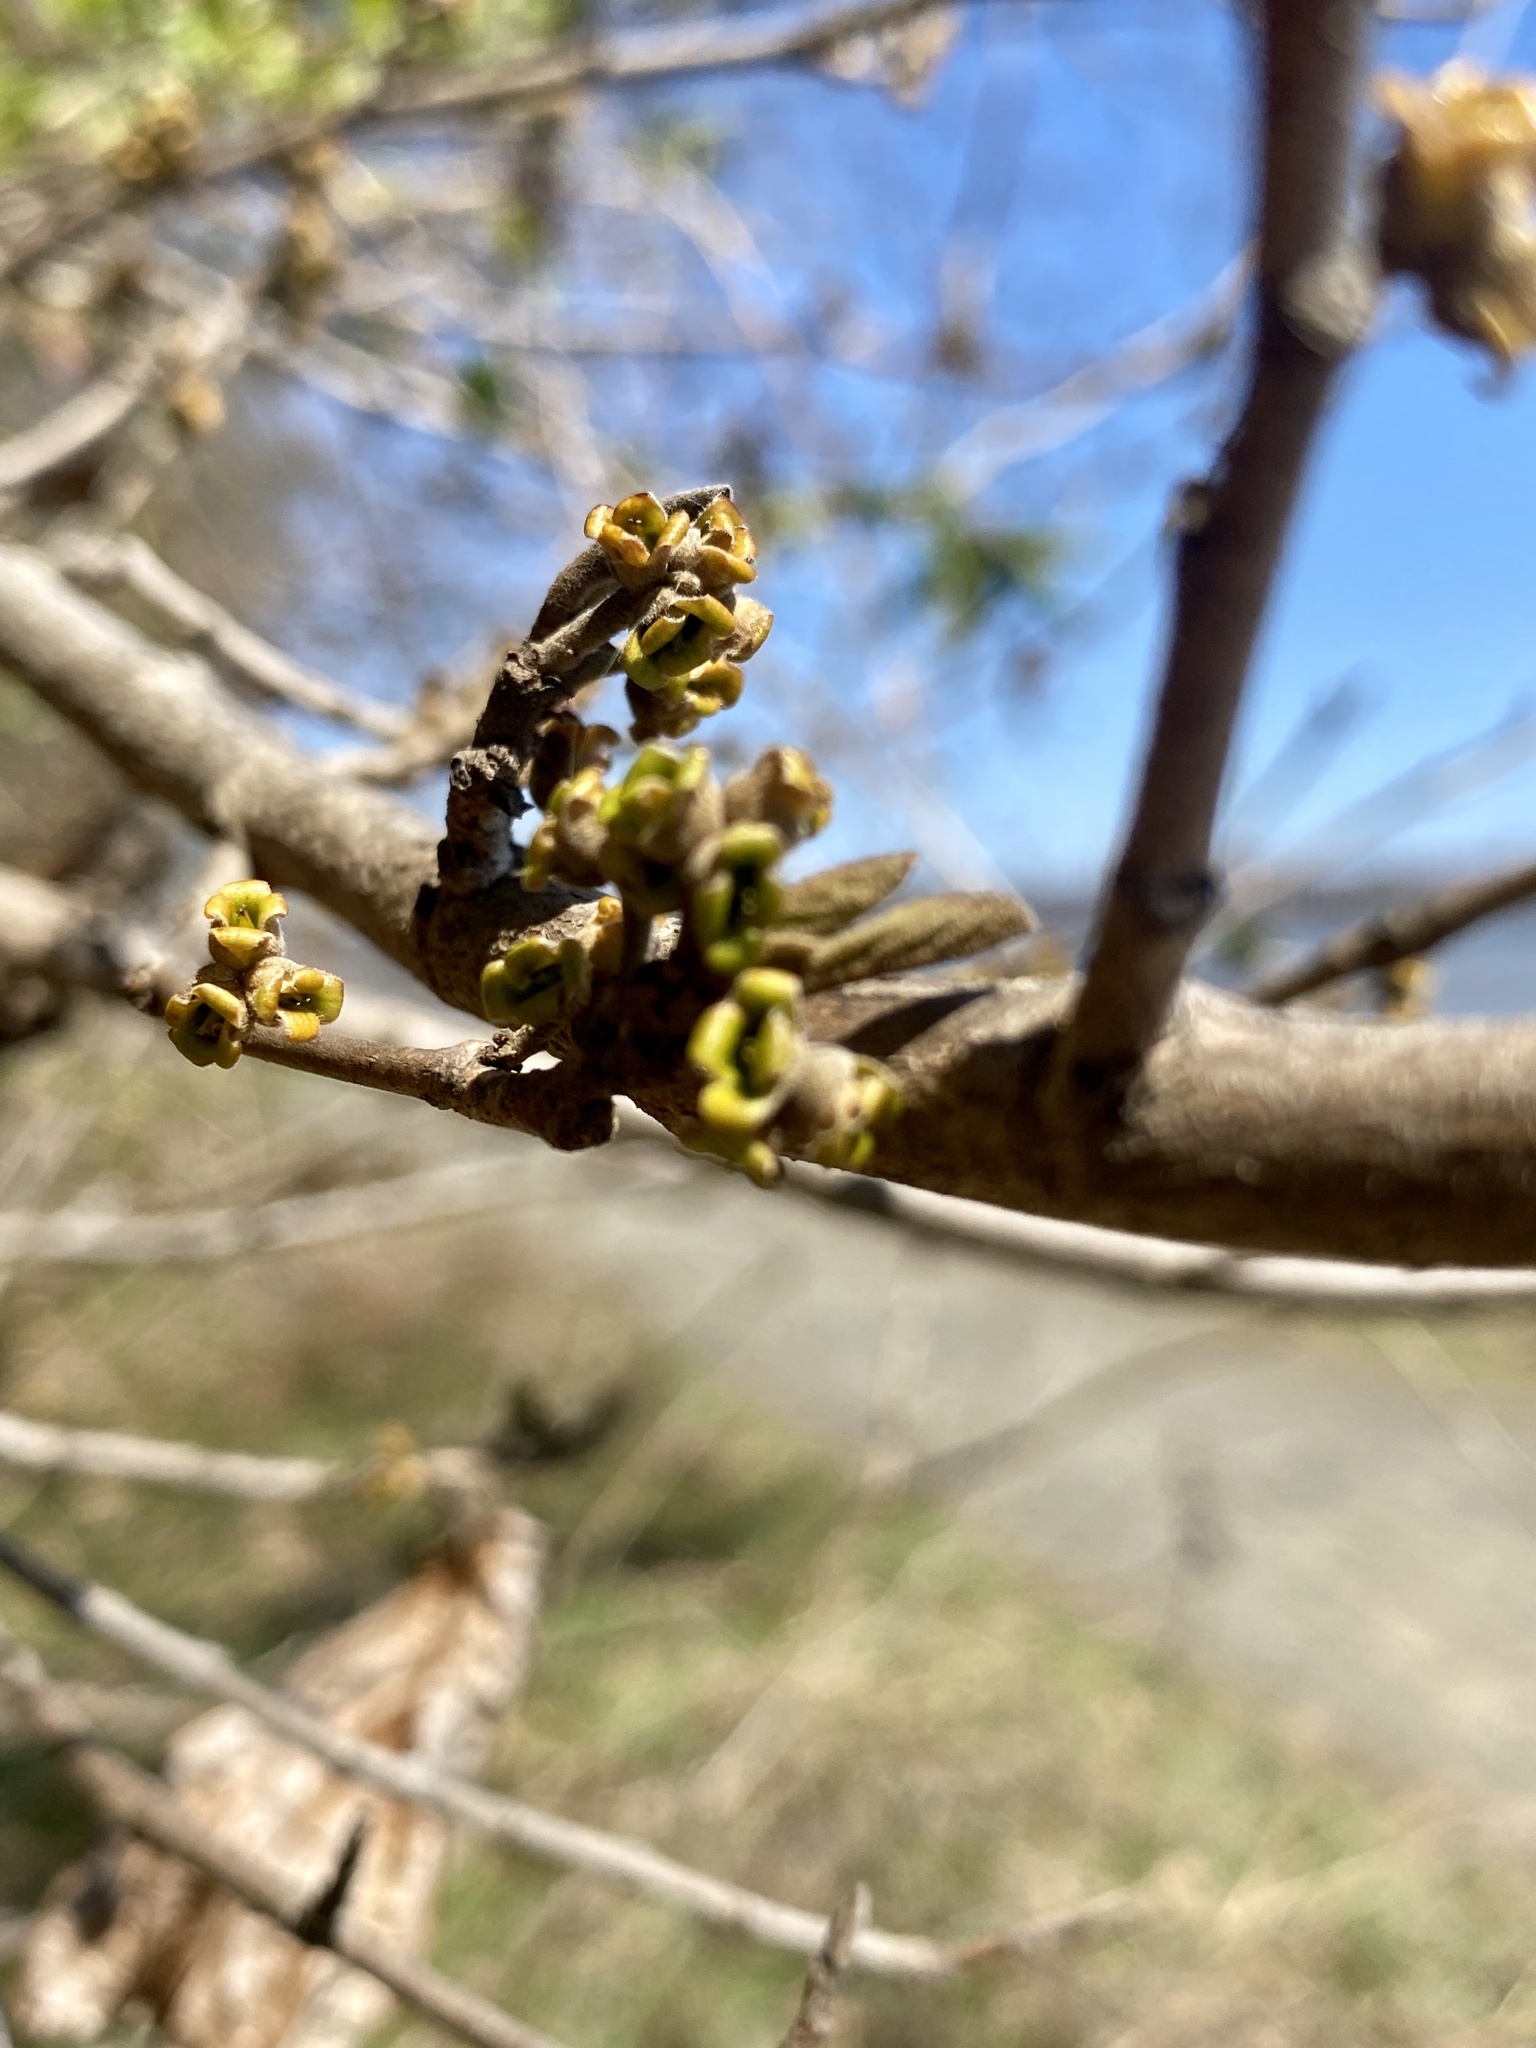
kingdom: Plantae
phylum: Tracheophyta
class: Magnoliopsida
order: Saxifragales
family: Hamamelidaceae
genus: Hamamelis
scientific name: Hamamelis virginiana
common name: Witch-hazel
